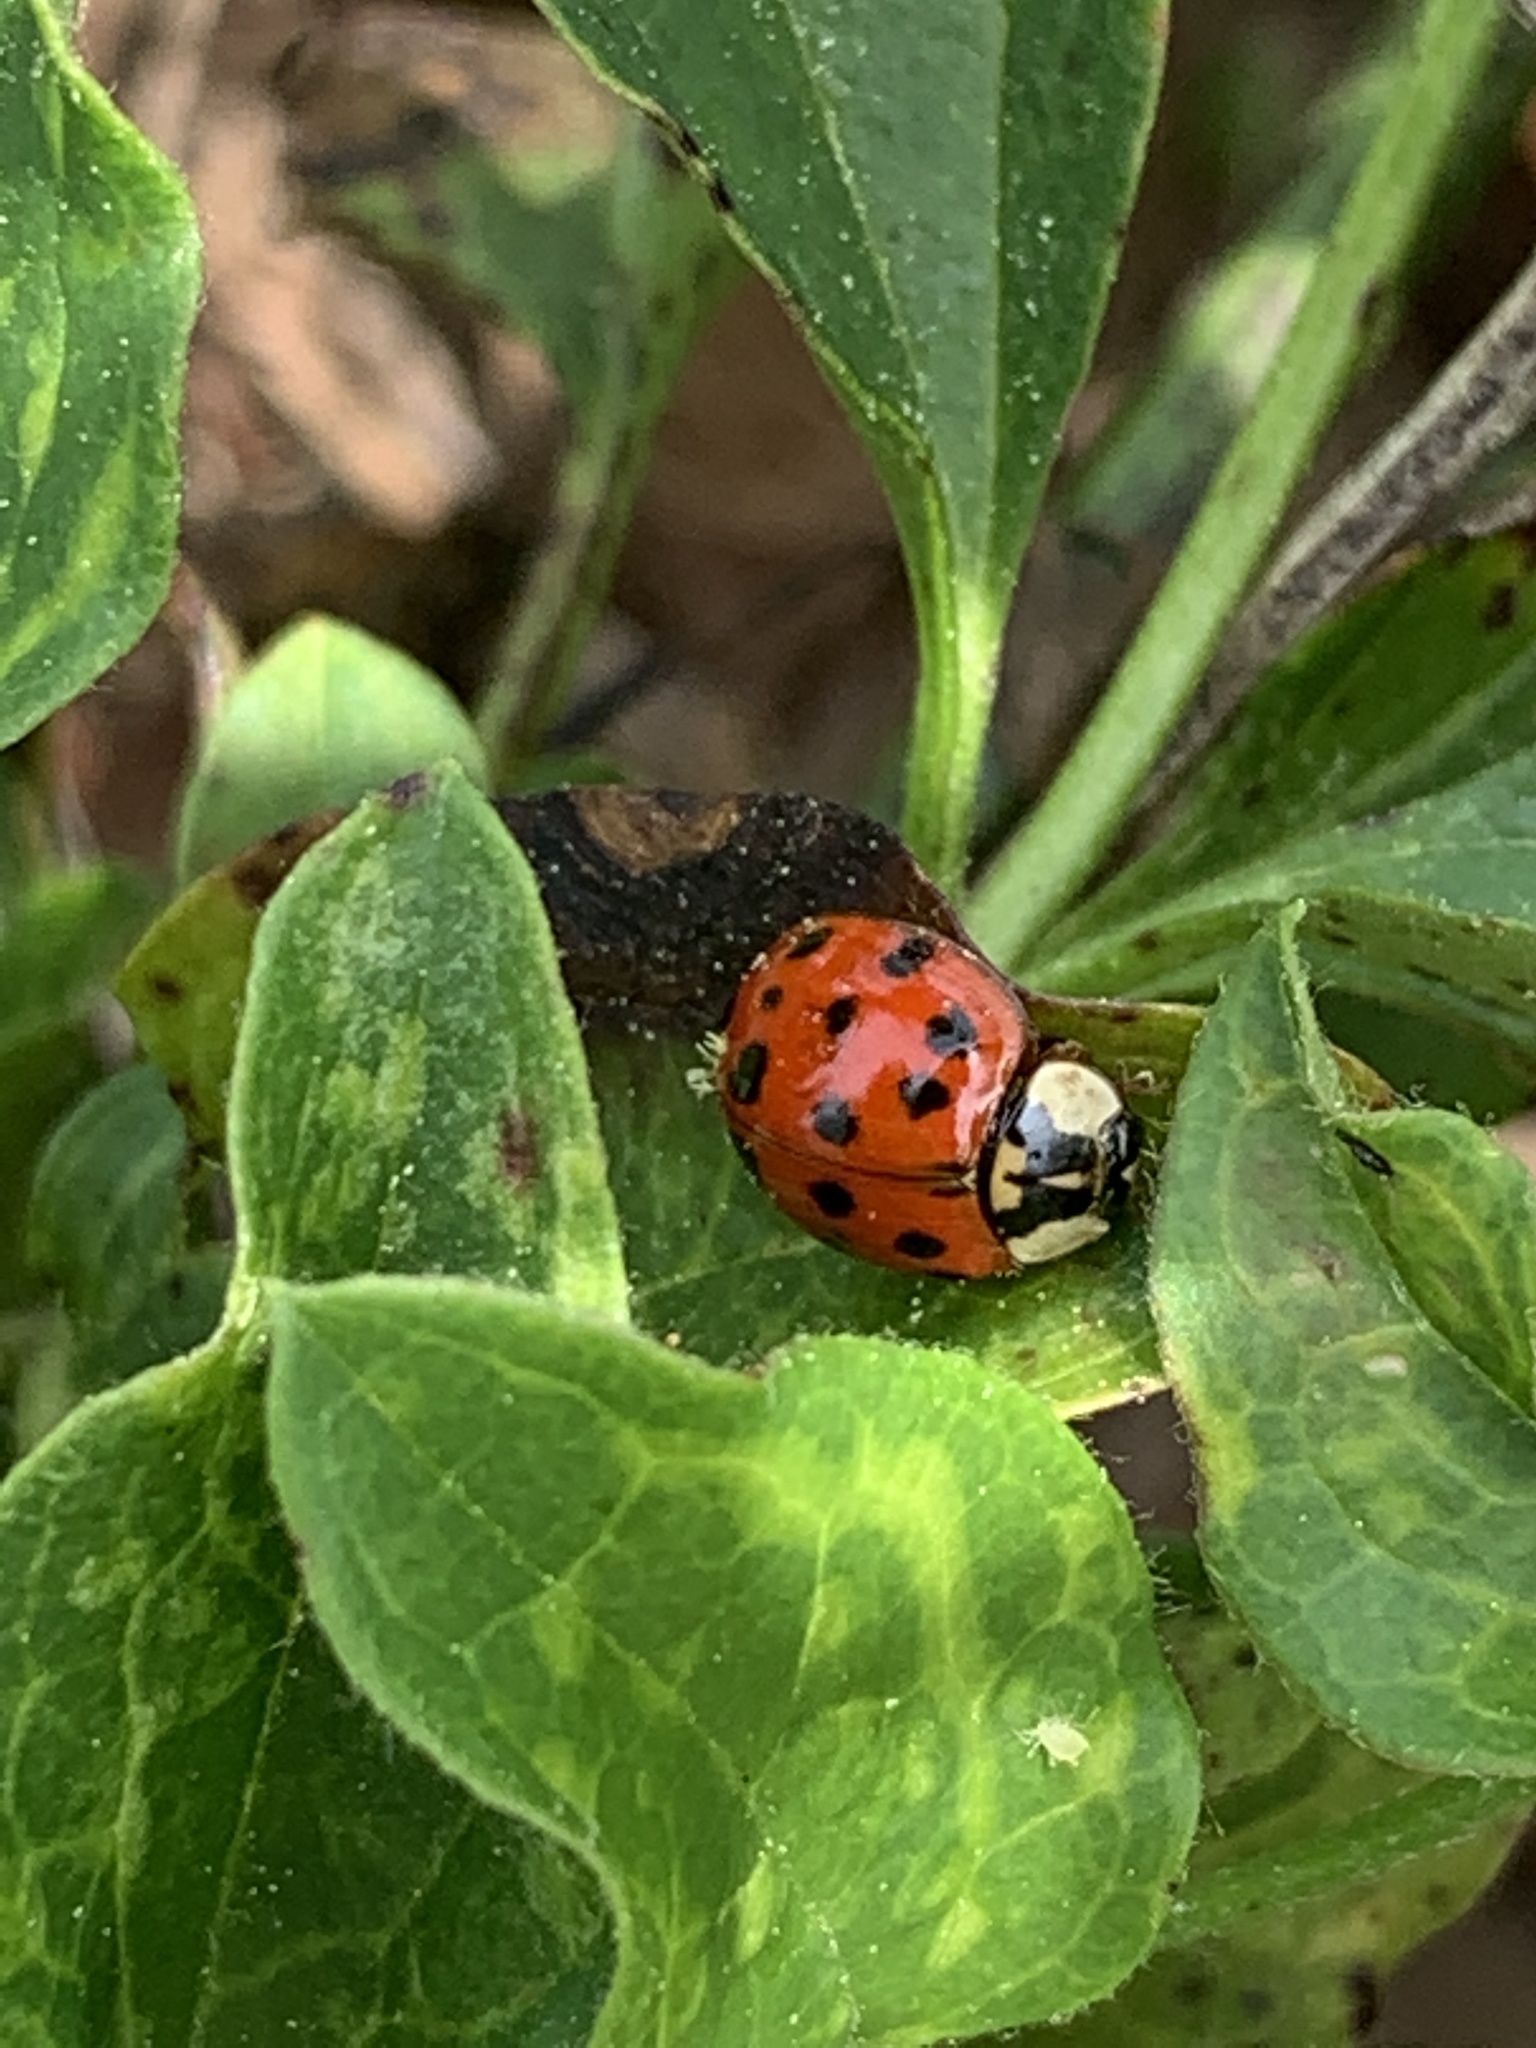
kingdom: Animalia
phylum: Arthropoda
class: Insecta
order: Coleoptera
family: Coccinellidae
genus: Harmonia
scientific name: Harmonia axyridis
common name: Harlequin ladybird
